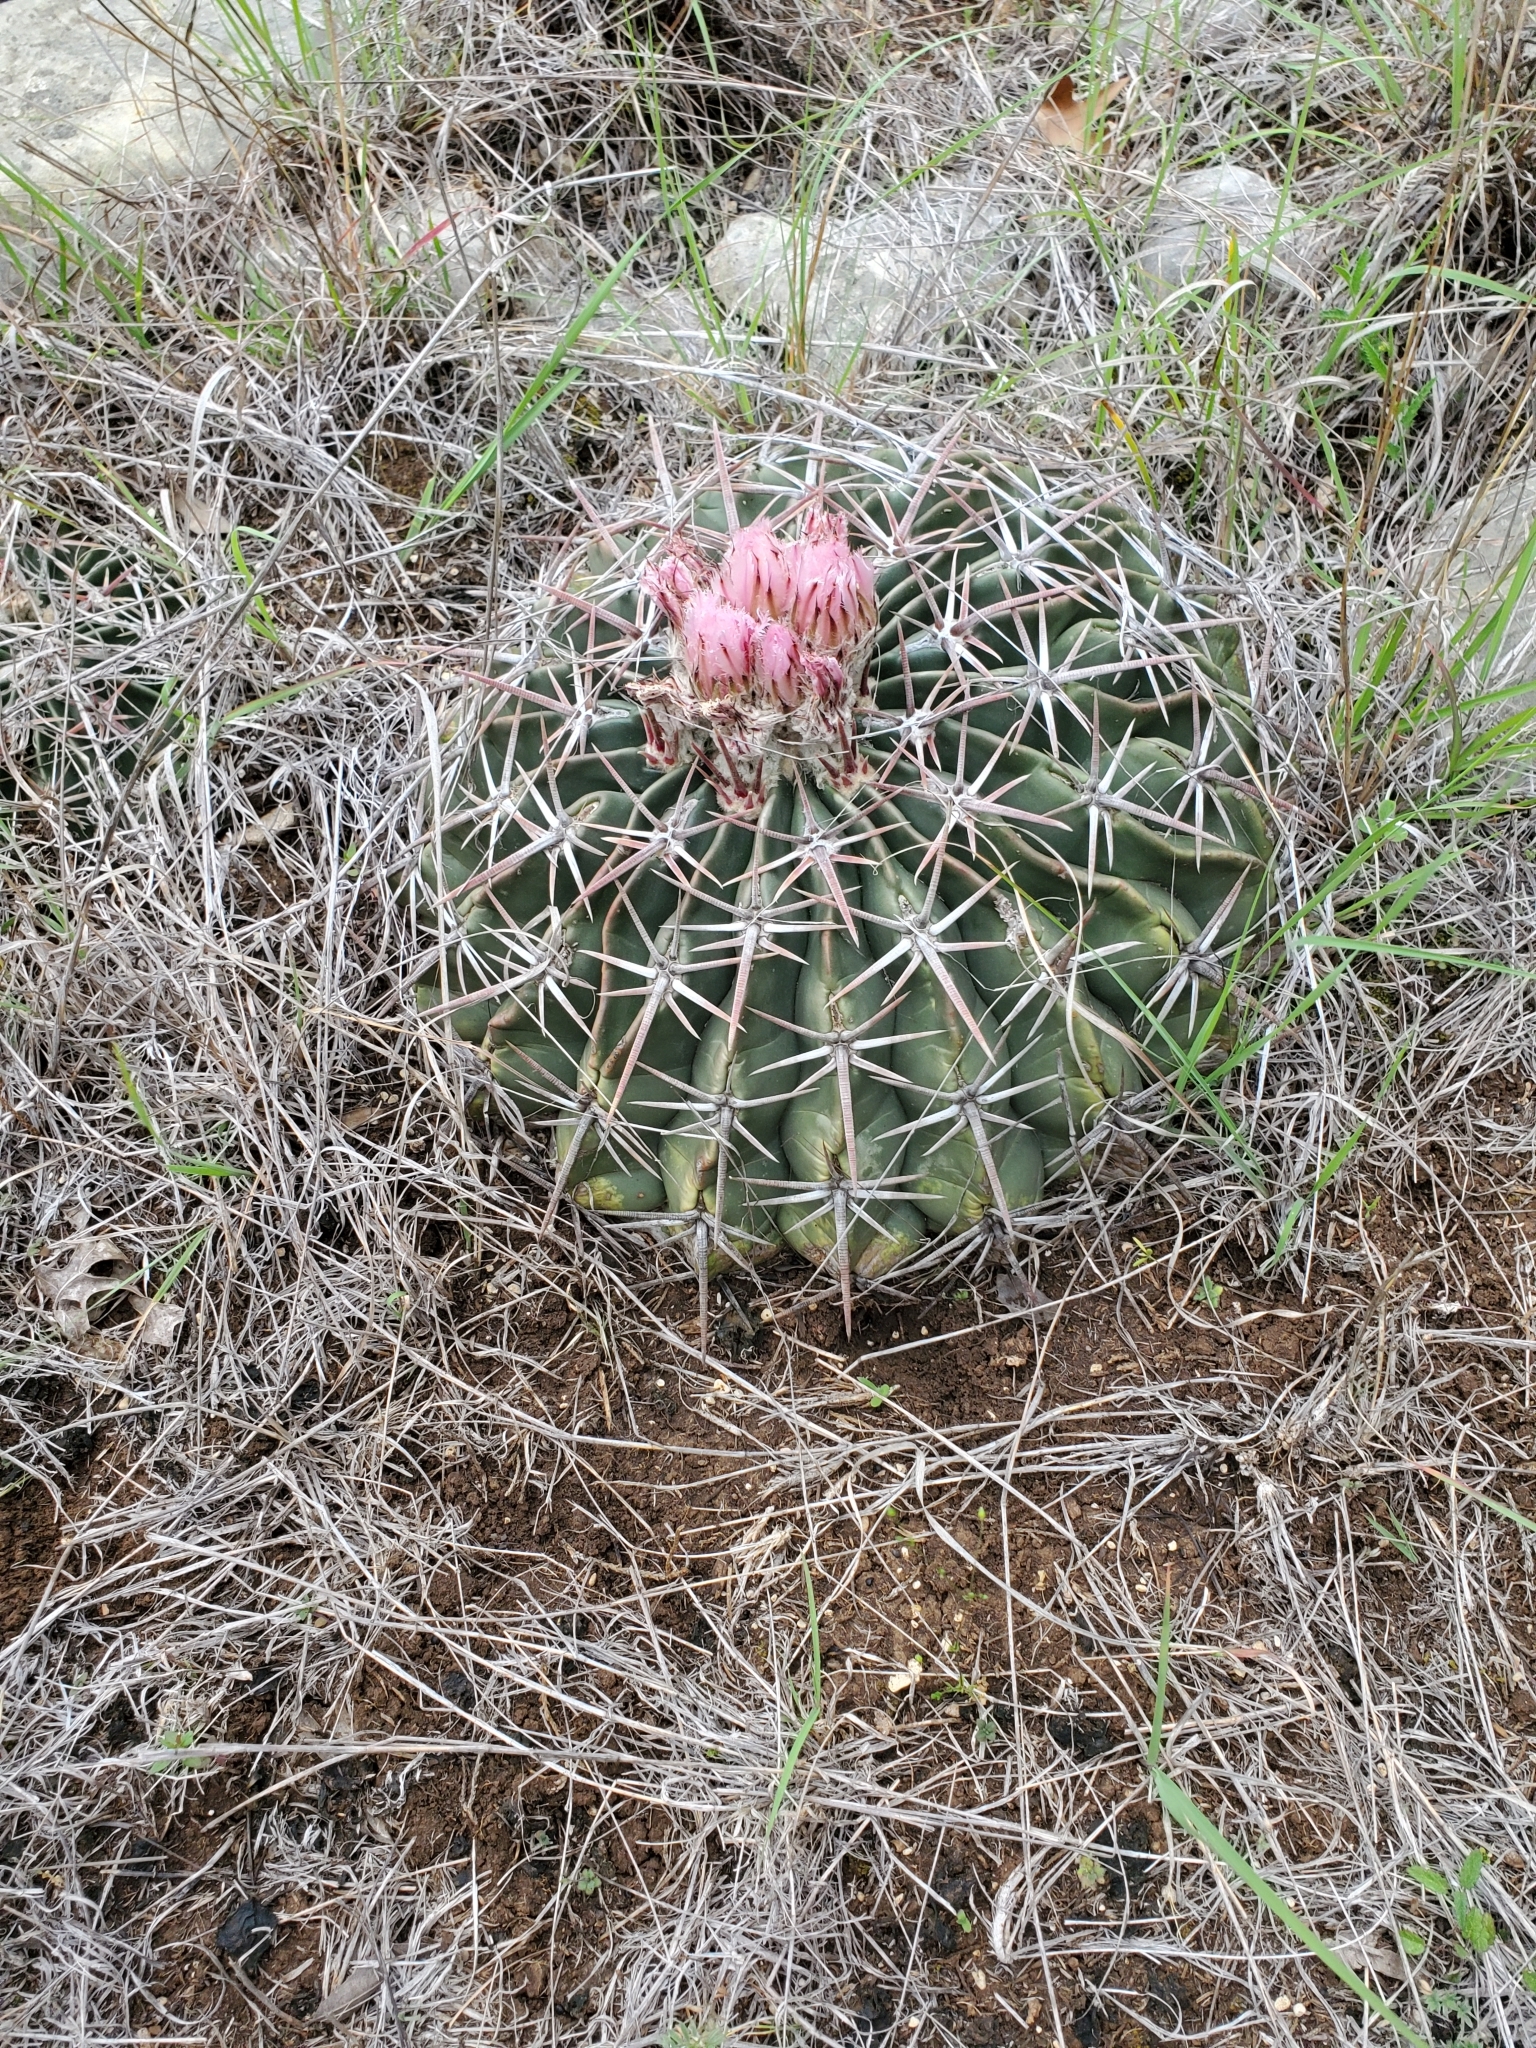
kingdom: Plantae
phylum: Tracheophyta
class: Magnoliopsida
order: Caryophyllales
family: Cactaceae
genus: Echinocactus
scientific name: Echinocactus texensis
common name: Devil's pincushion
